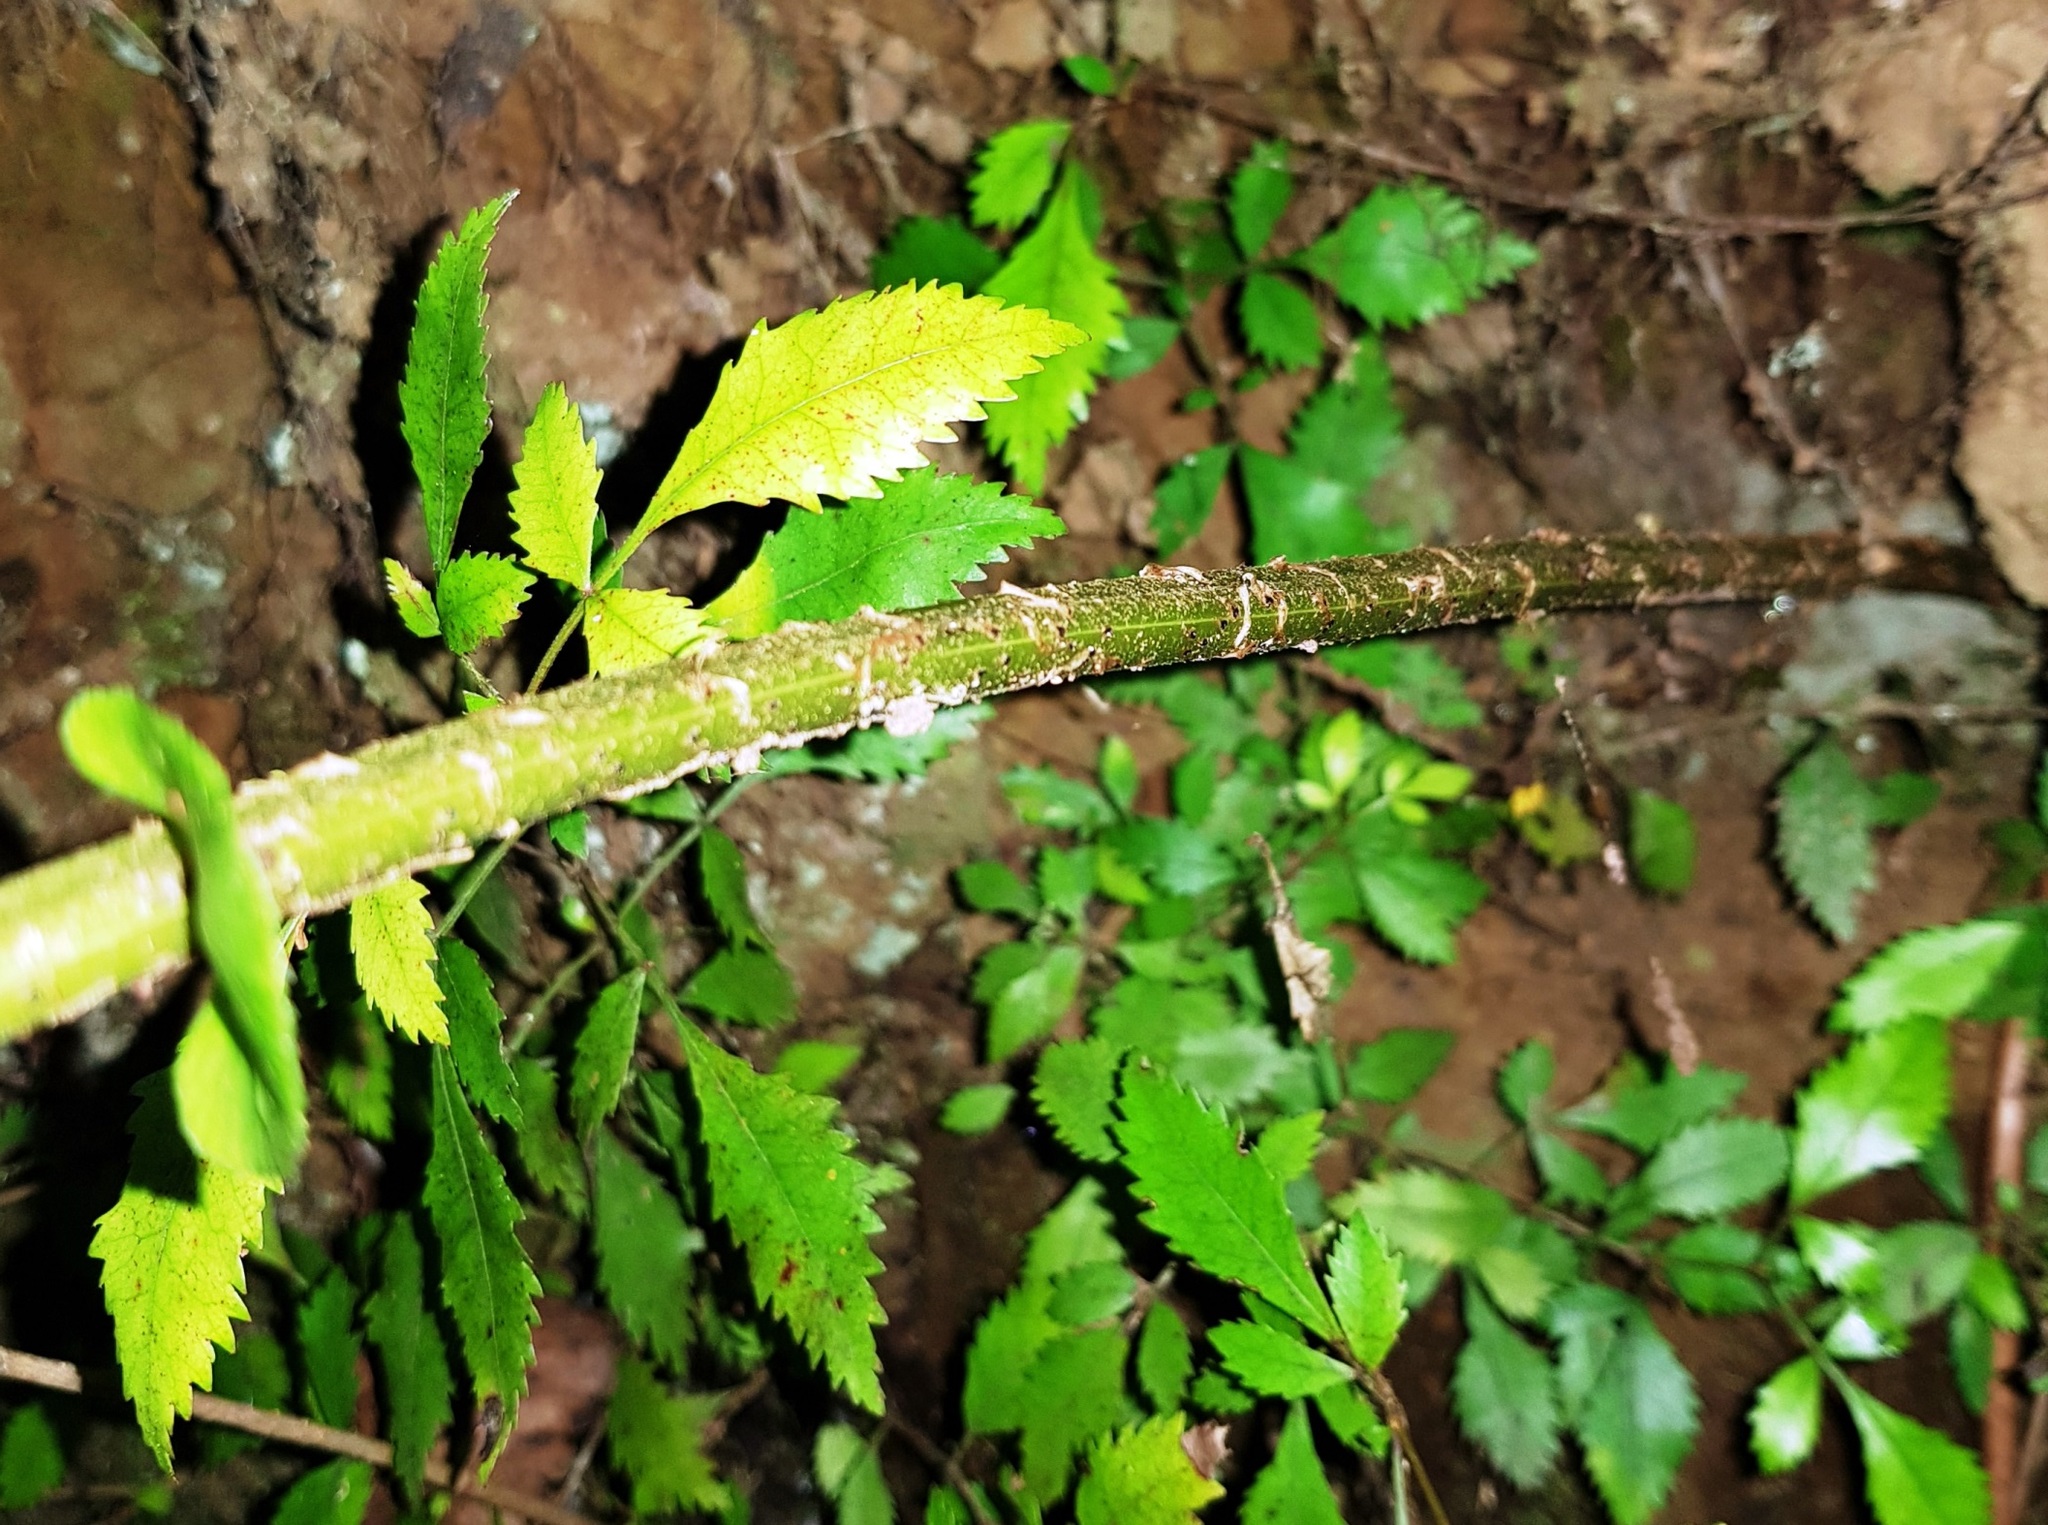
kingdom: Plantae
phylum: Tracheophyta
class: Polypodiopsida
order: Polypodiales
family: Blechnaceae
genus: Parablechnum
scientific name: Parablechnum novae-zelandiae
